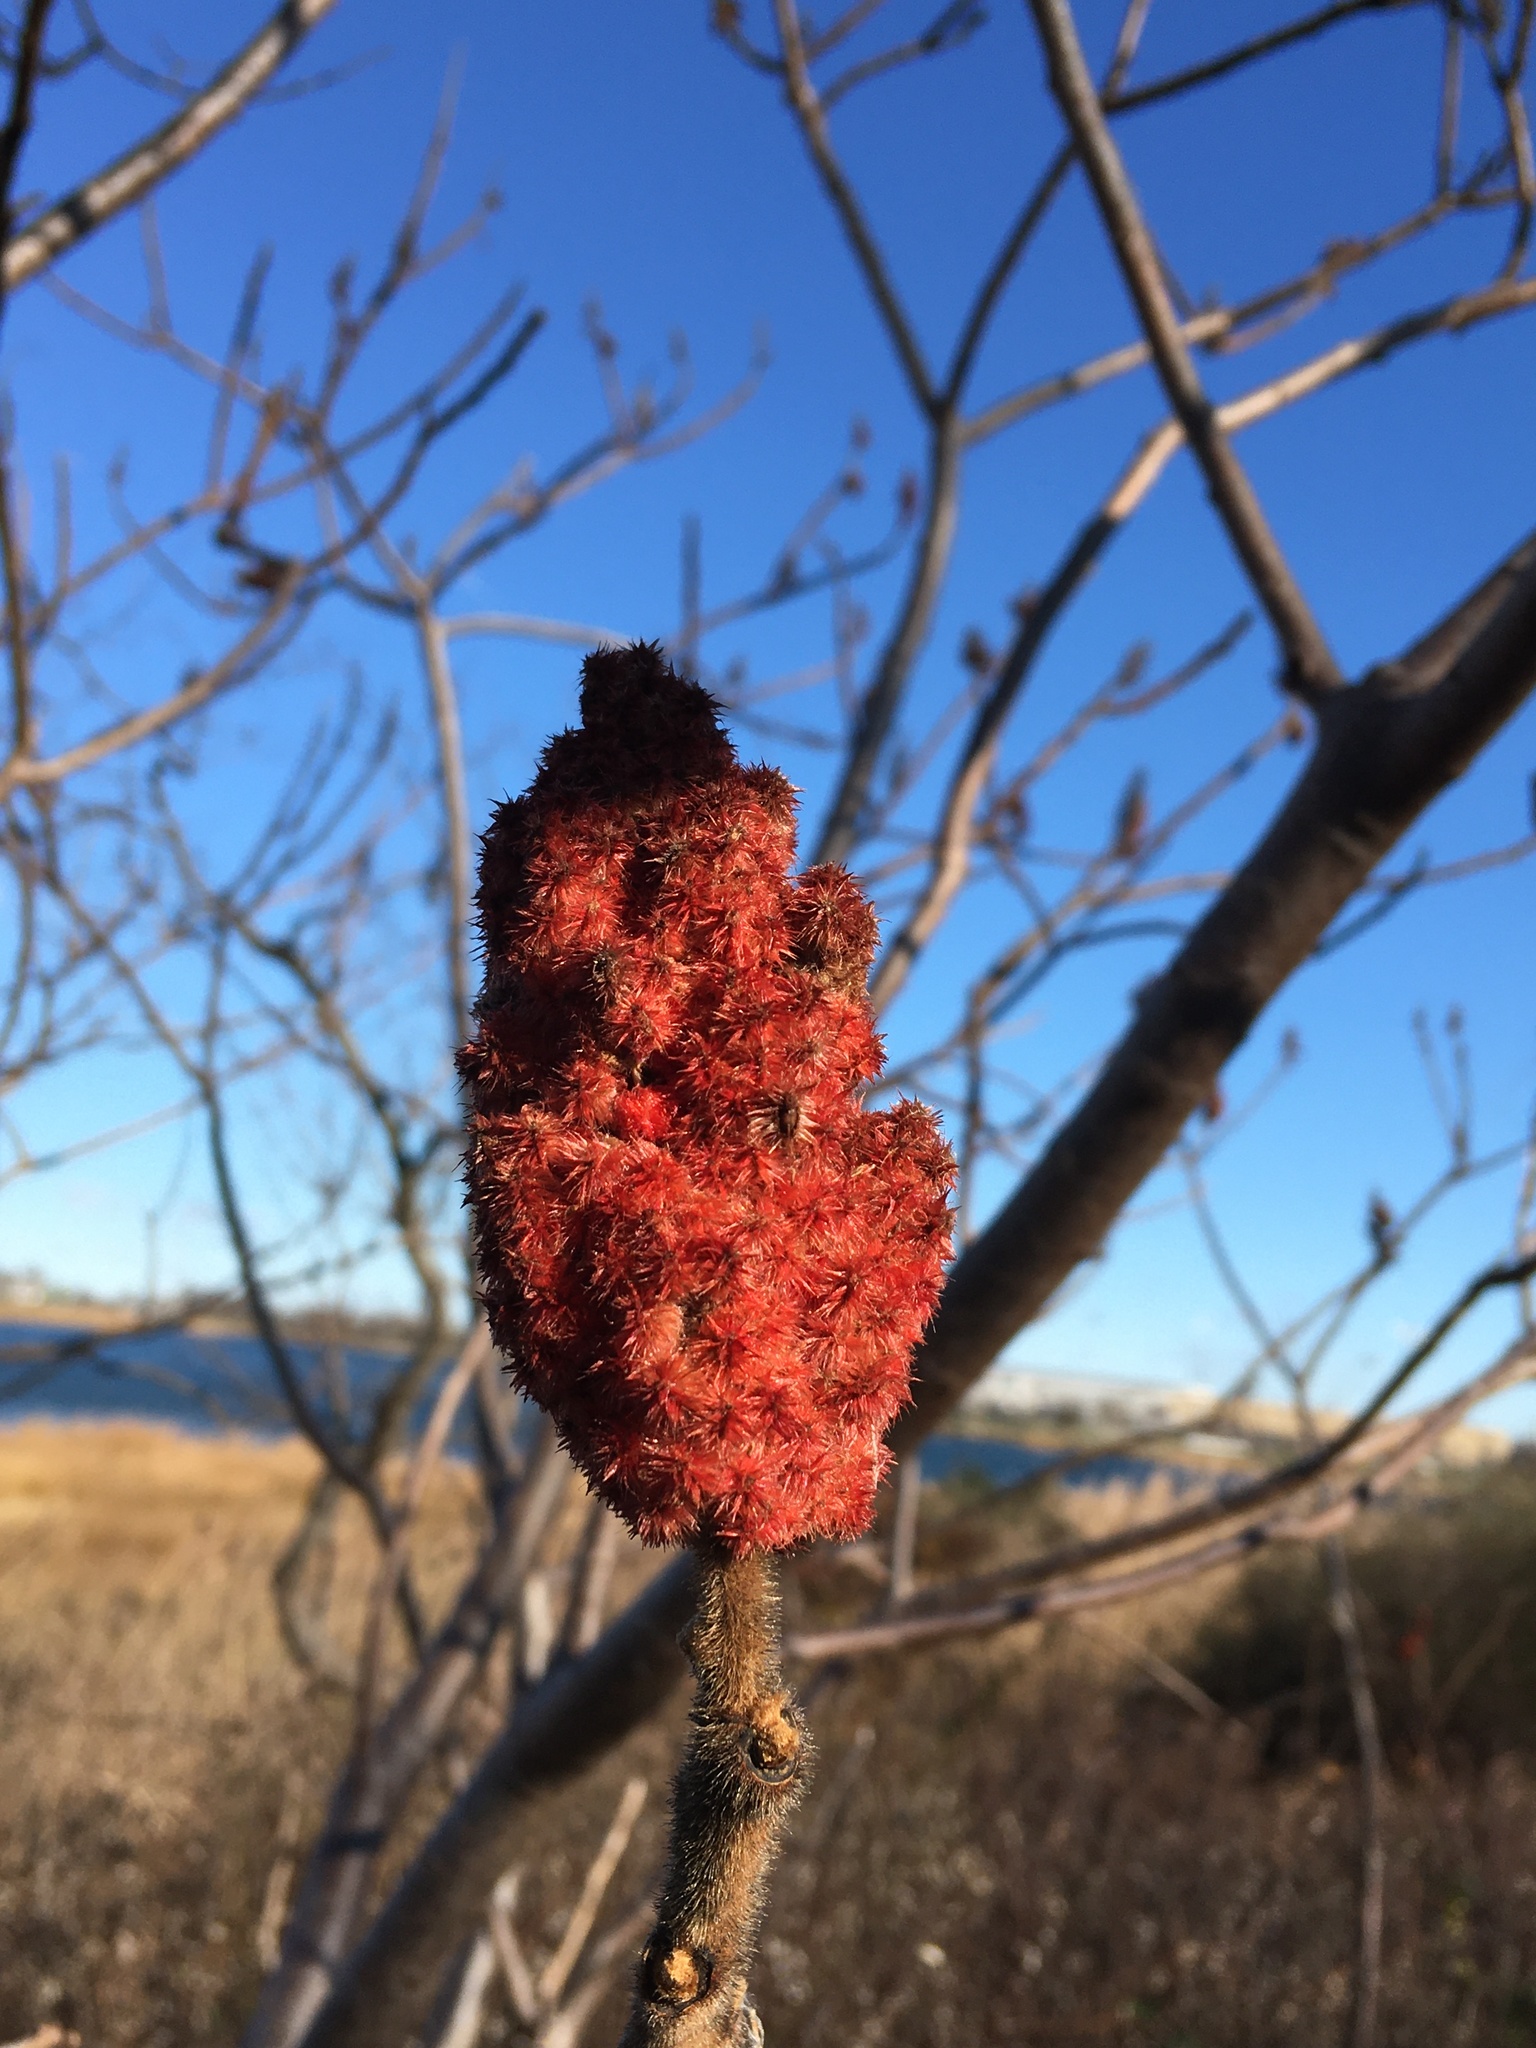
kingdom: Plantae
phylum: Tracheophyta
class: Magnoliopsida
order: Sapindales
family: Anacardiaceae
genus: Rhus
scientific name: Rhus typhina
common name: Staghorn sumac
